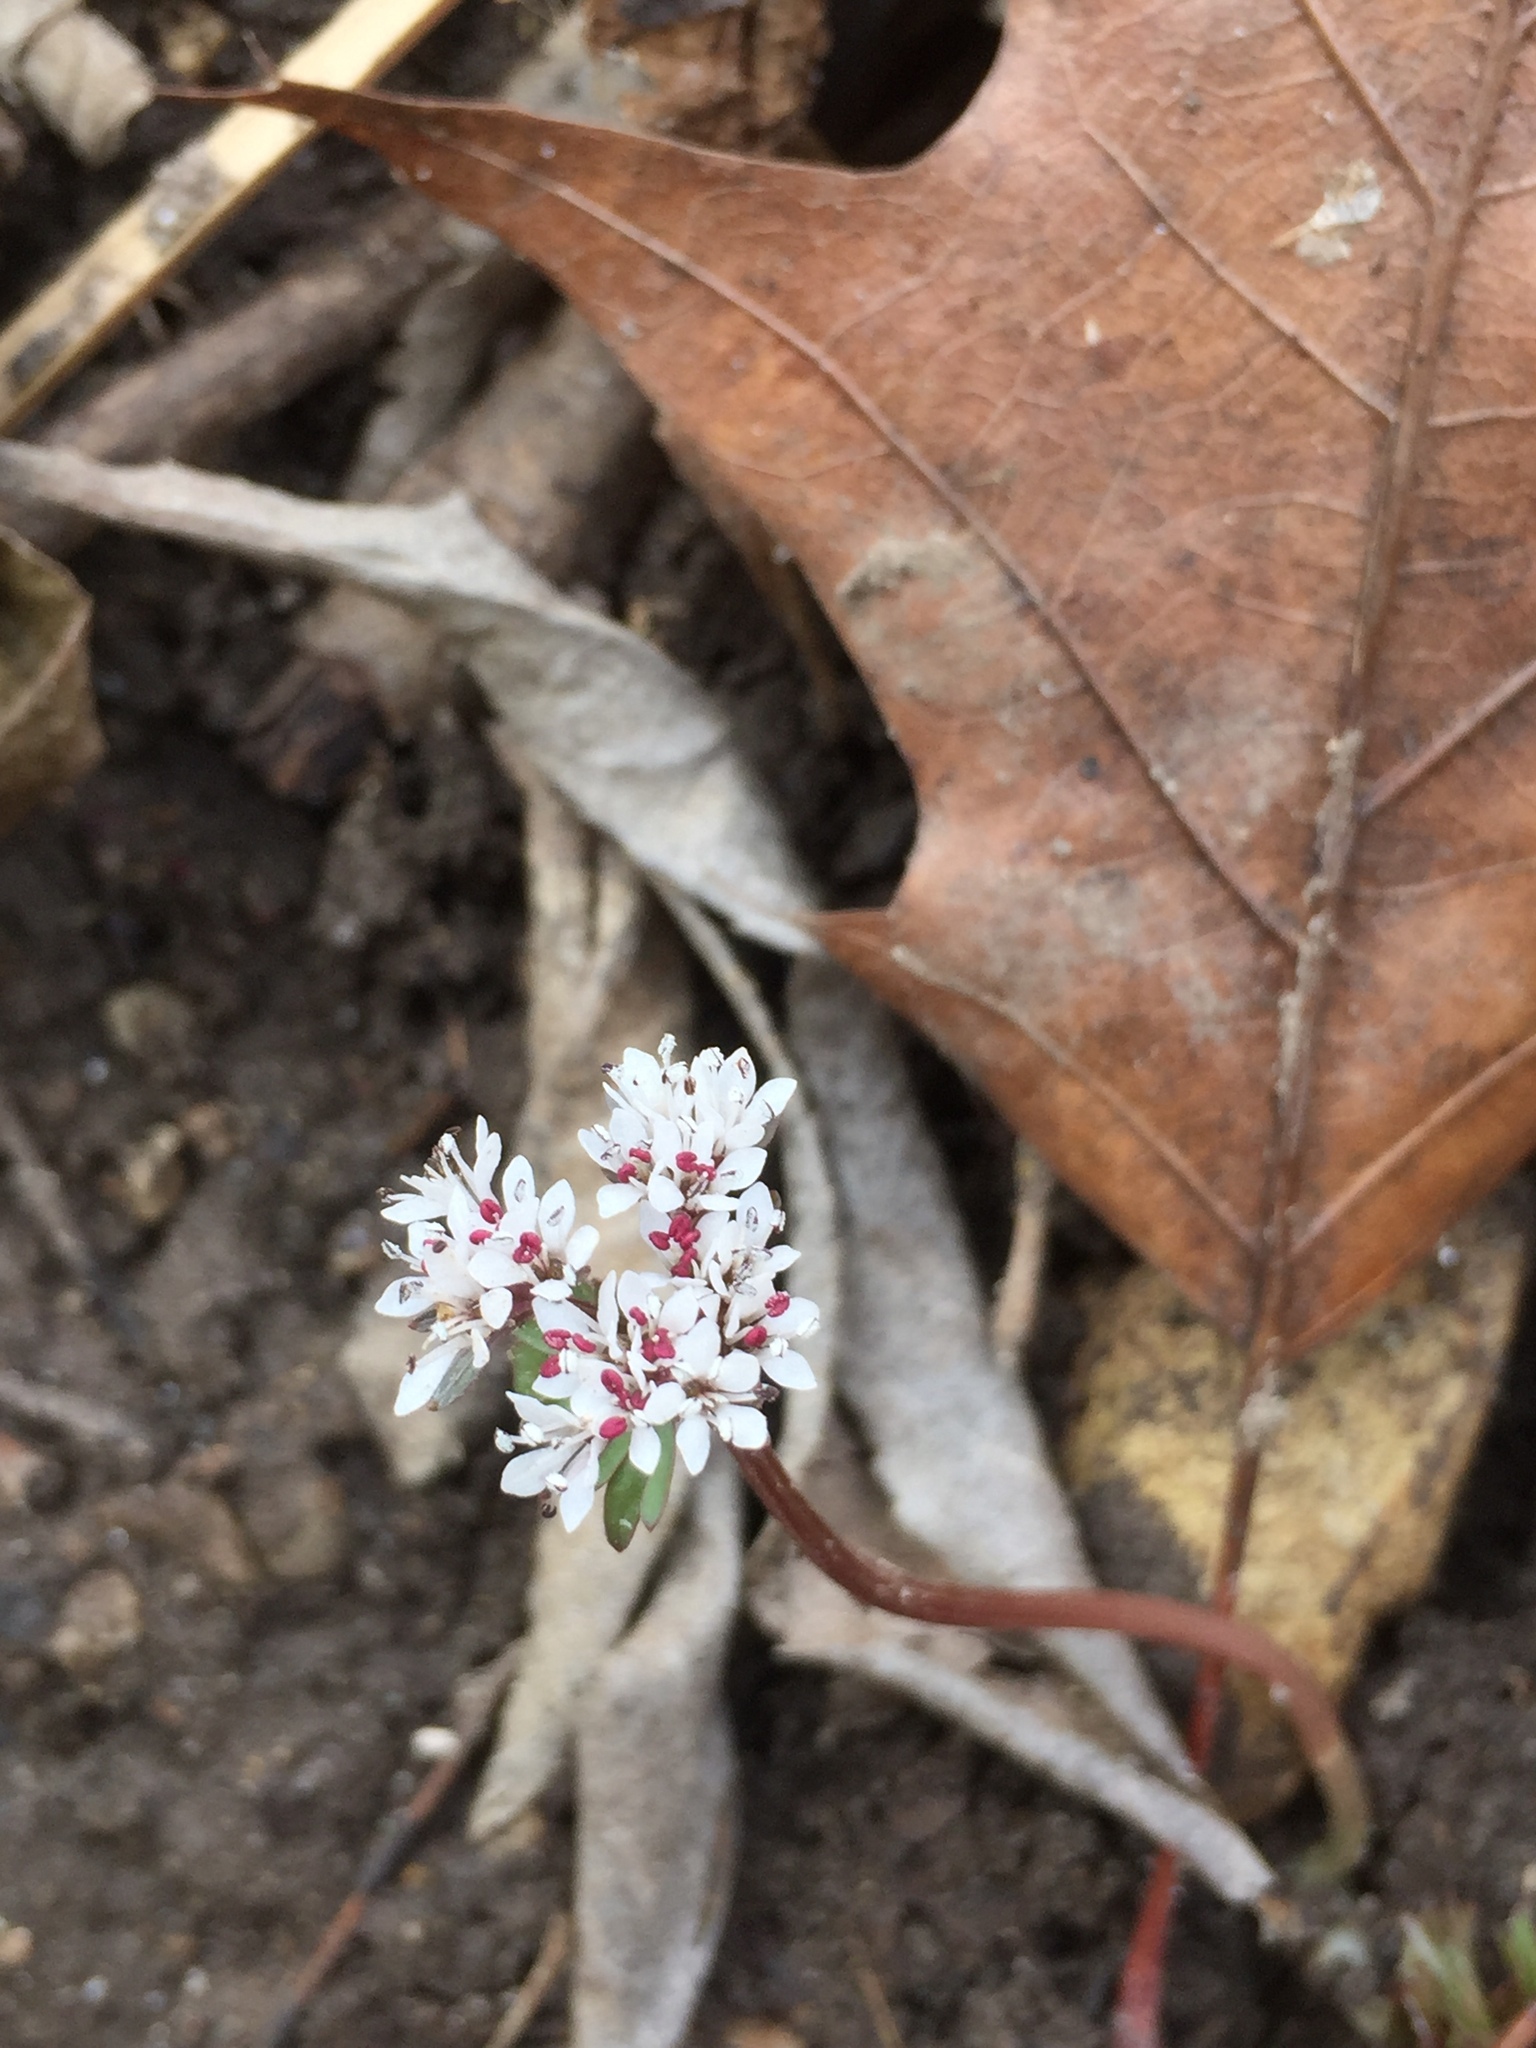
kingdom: Plantae
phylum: Tracheophyta
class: Magnoliopsida
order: Apiales
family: Apiaceae
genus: Erigenia
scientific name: Erigenia bulbosa
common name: Pepper-and-salt
